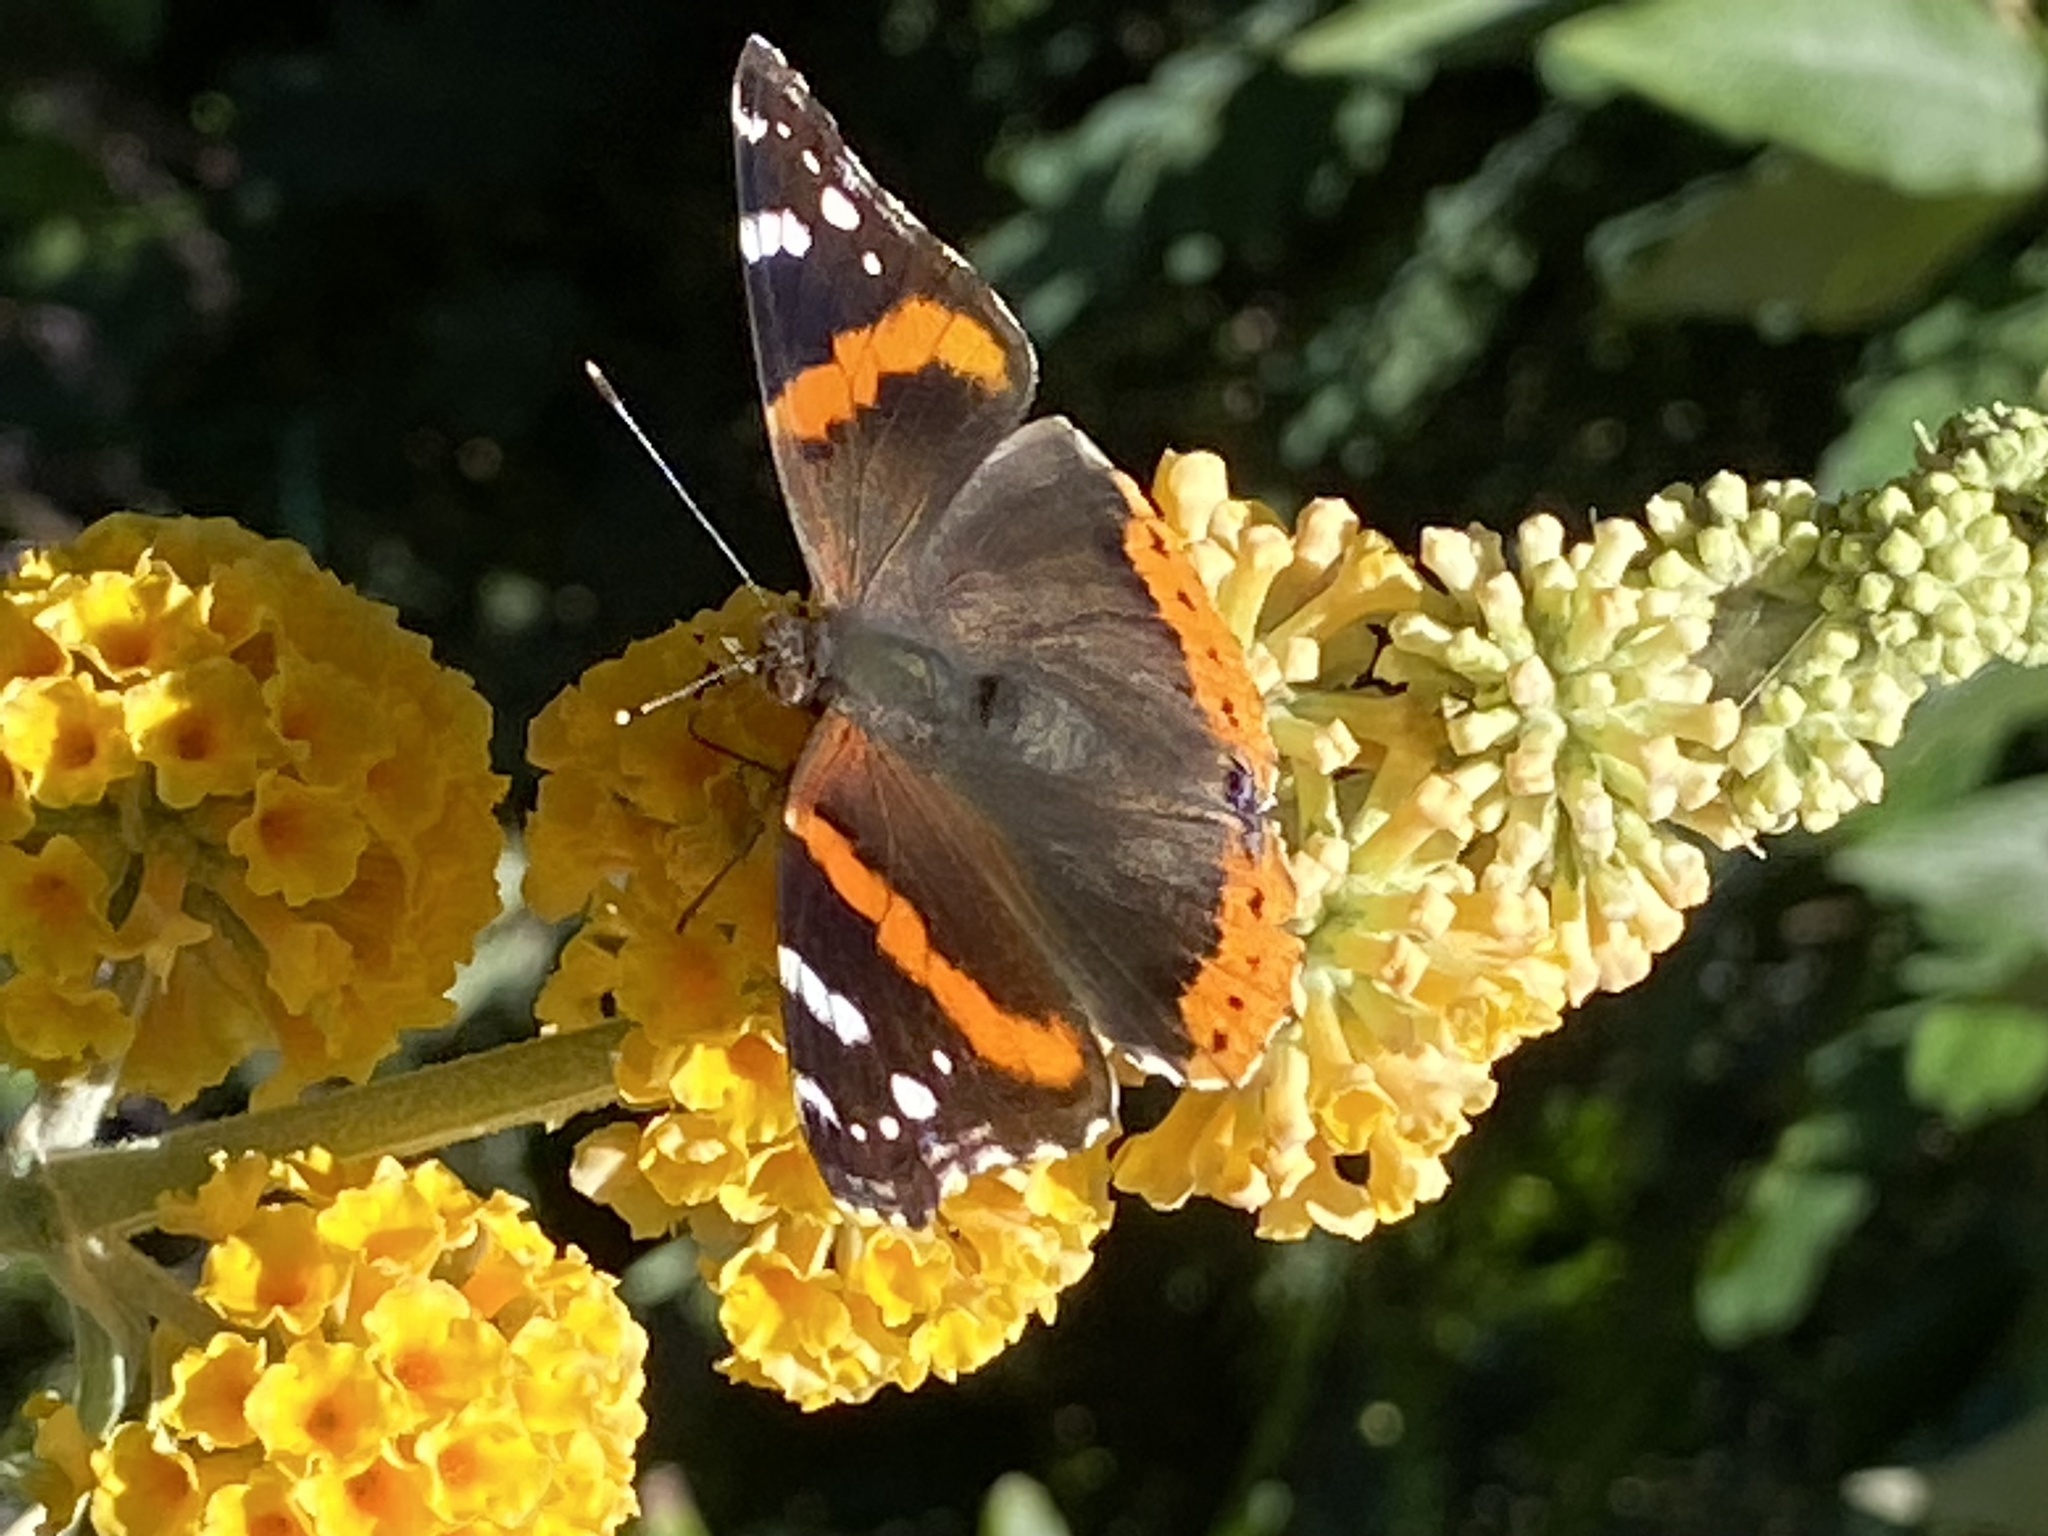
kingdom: Animalia
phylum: Arthropoda
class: Insecta
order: Lepidoptera
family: Nymphalidae
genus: Vanessa
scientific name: Vanessa atalanta
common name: Red admiral
